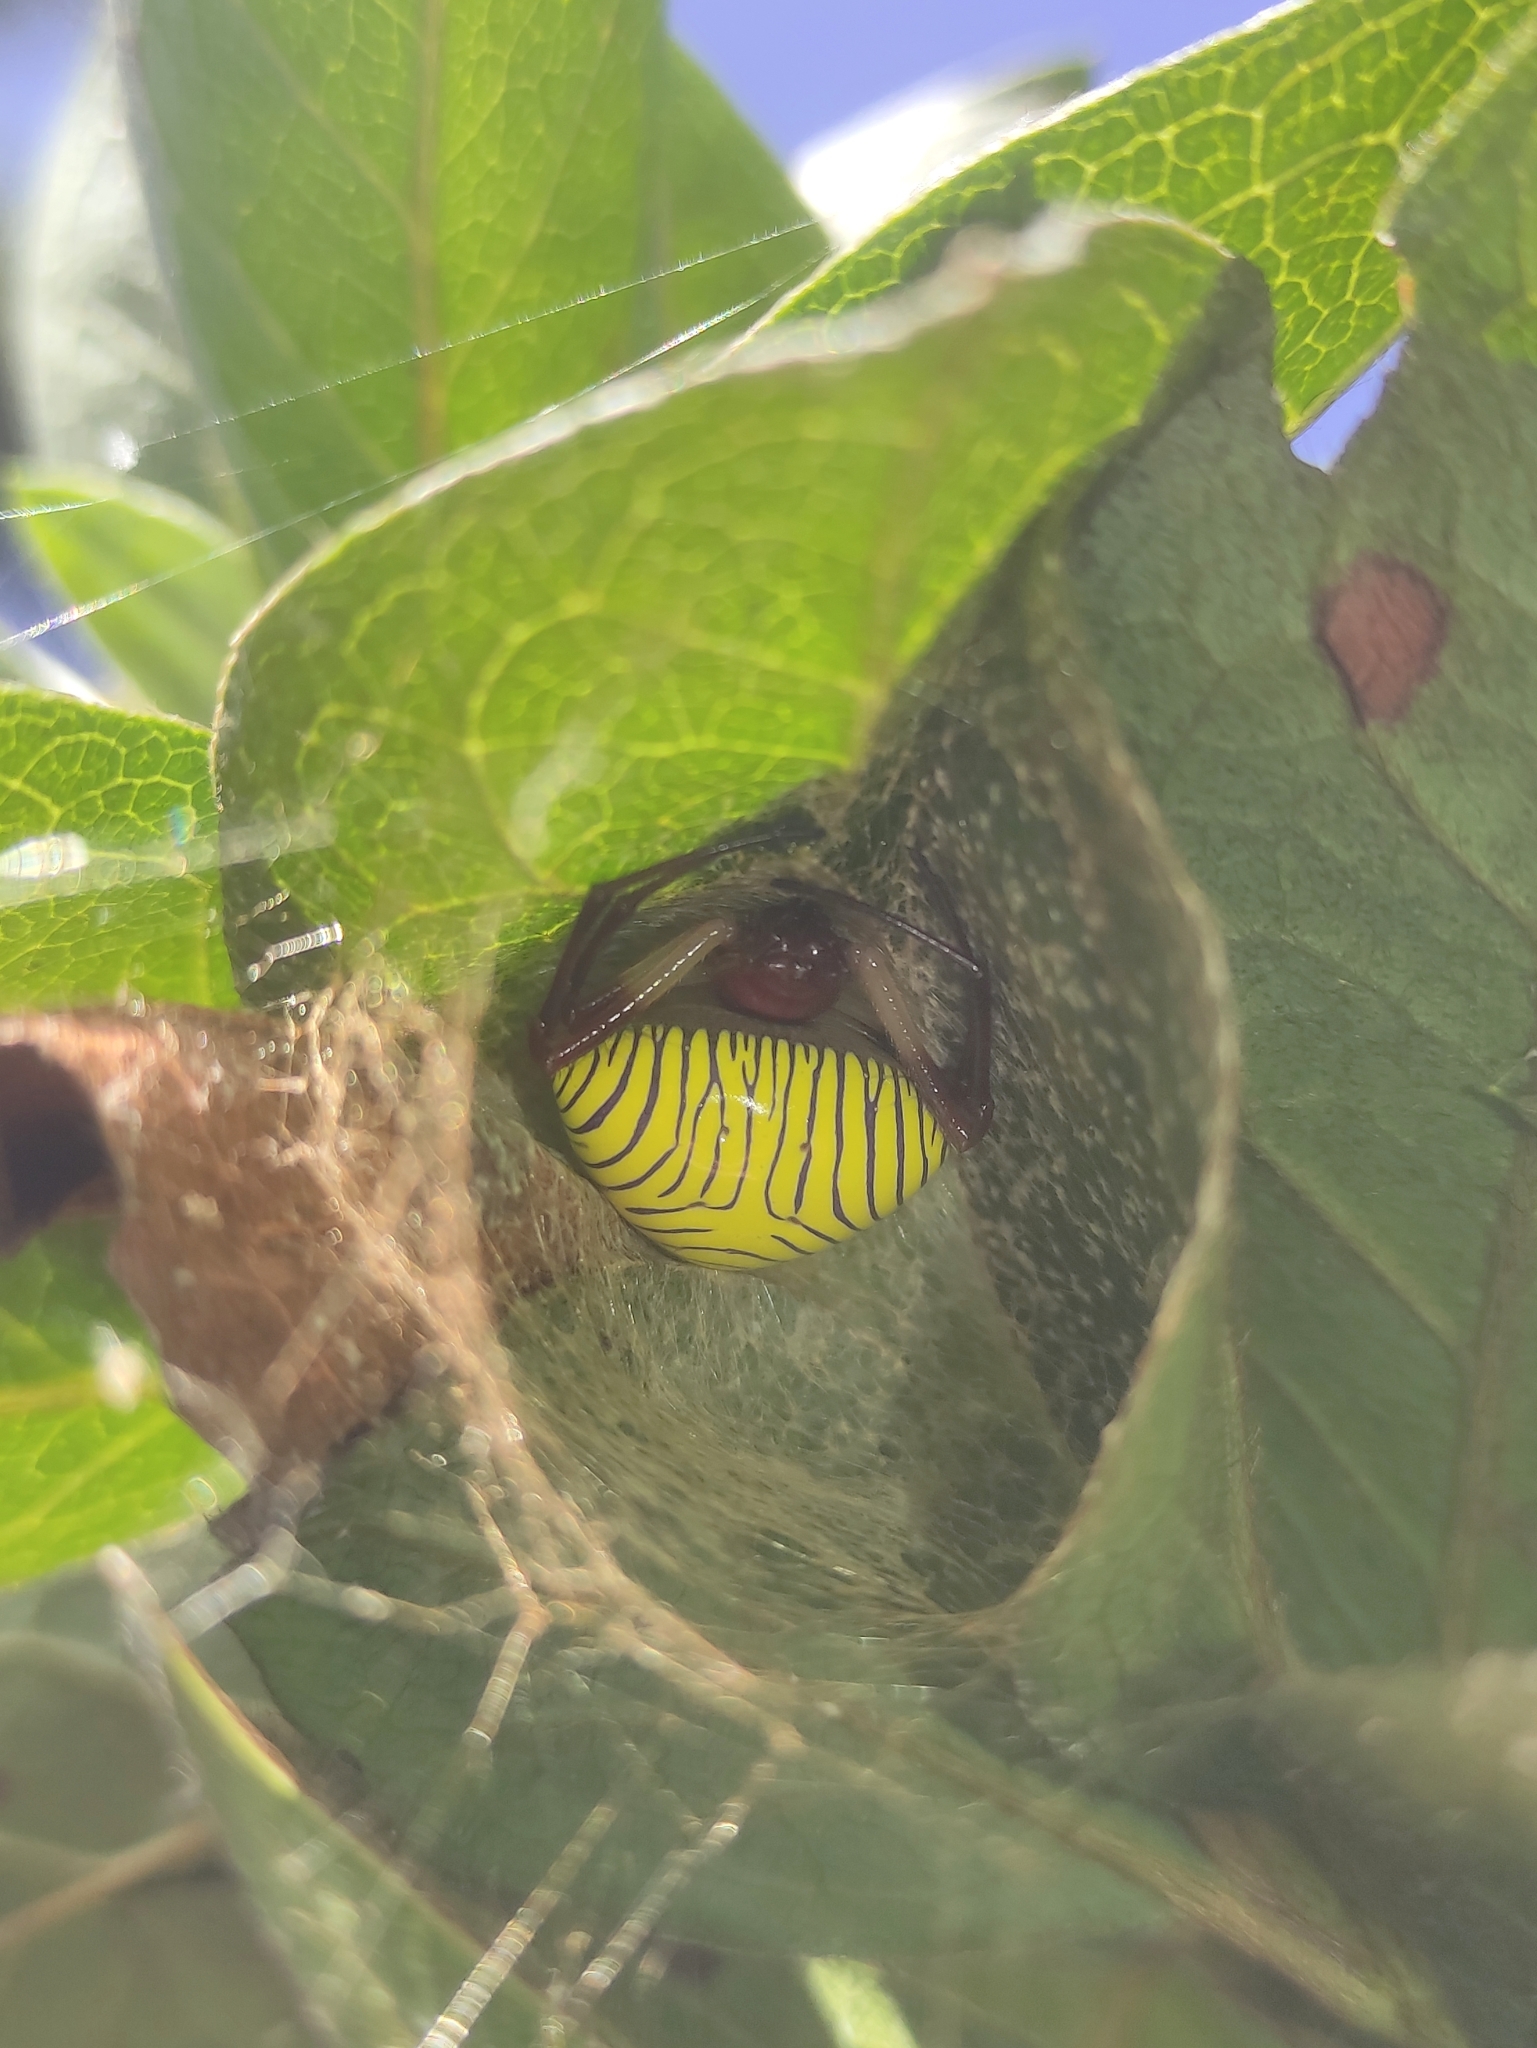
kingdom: Animalia
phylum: Arthropoda
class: Arachnida
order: Araneae
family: Araneidae
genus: Verrucosa
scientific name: Verrucosa zebra
